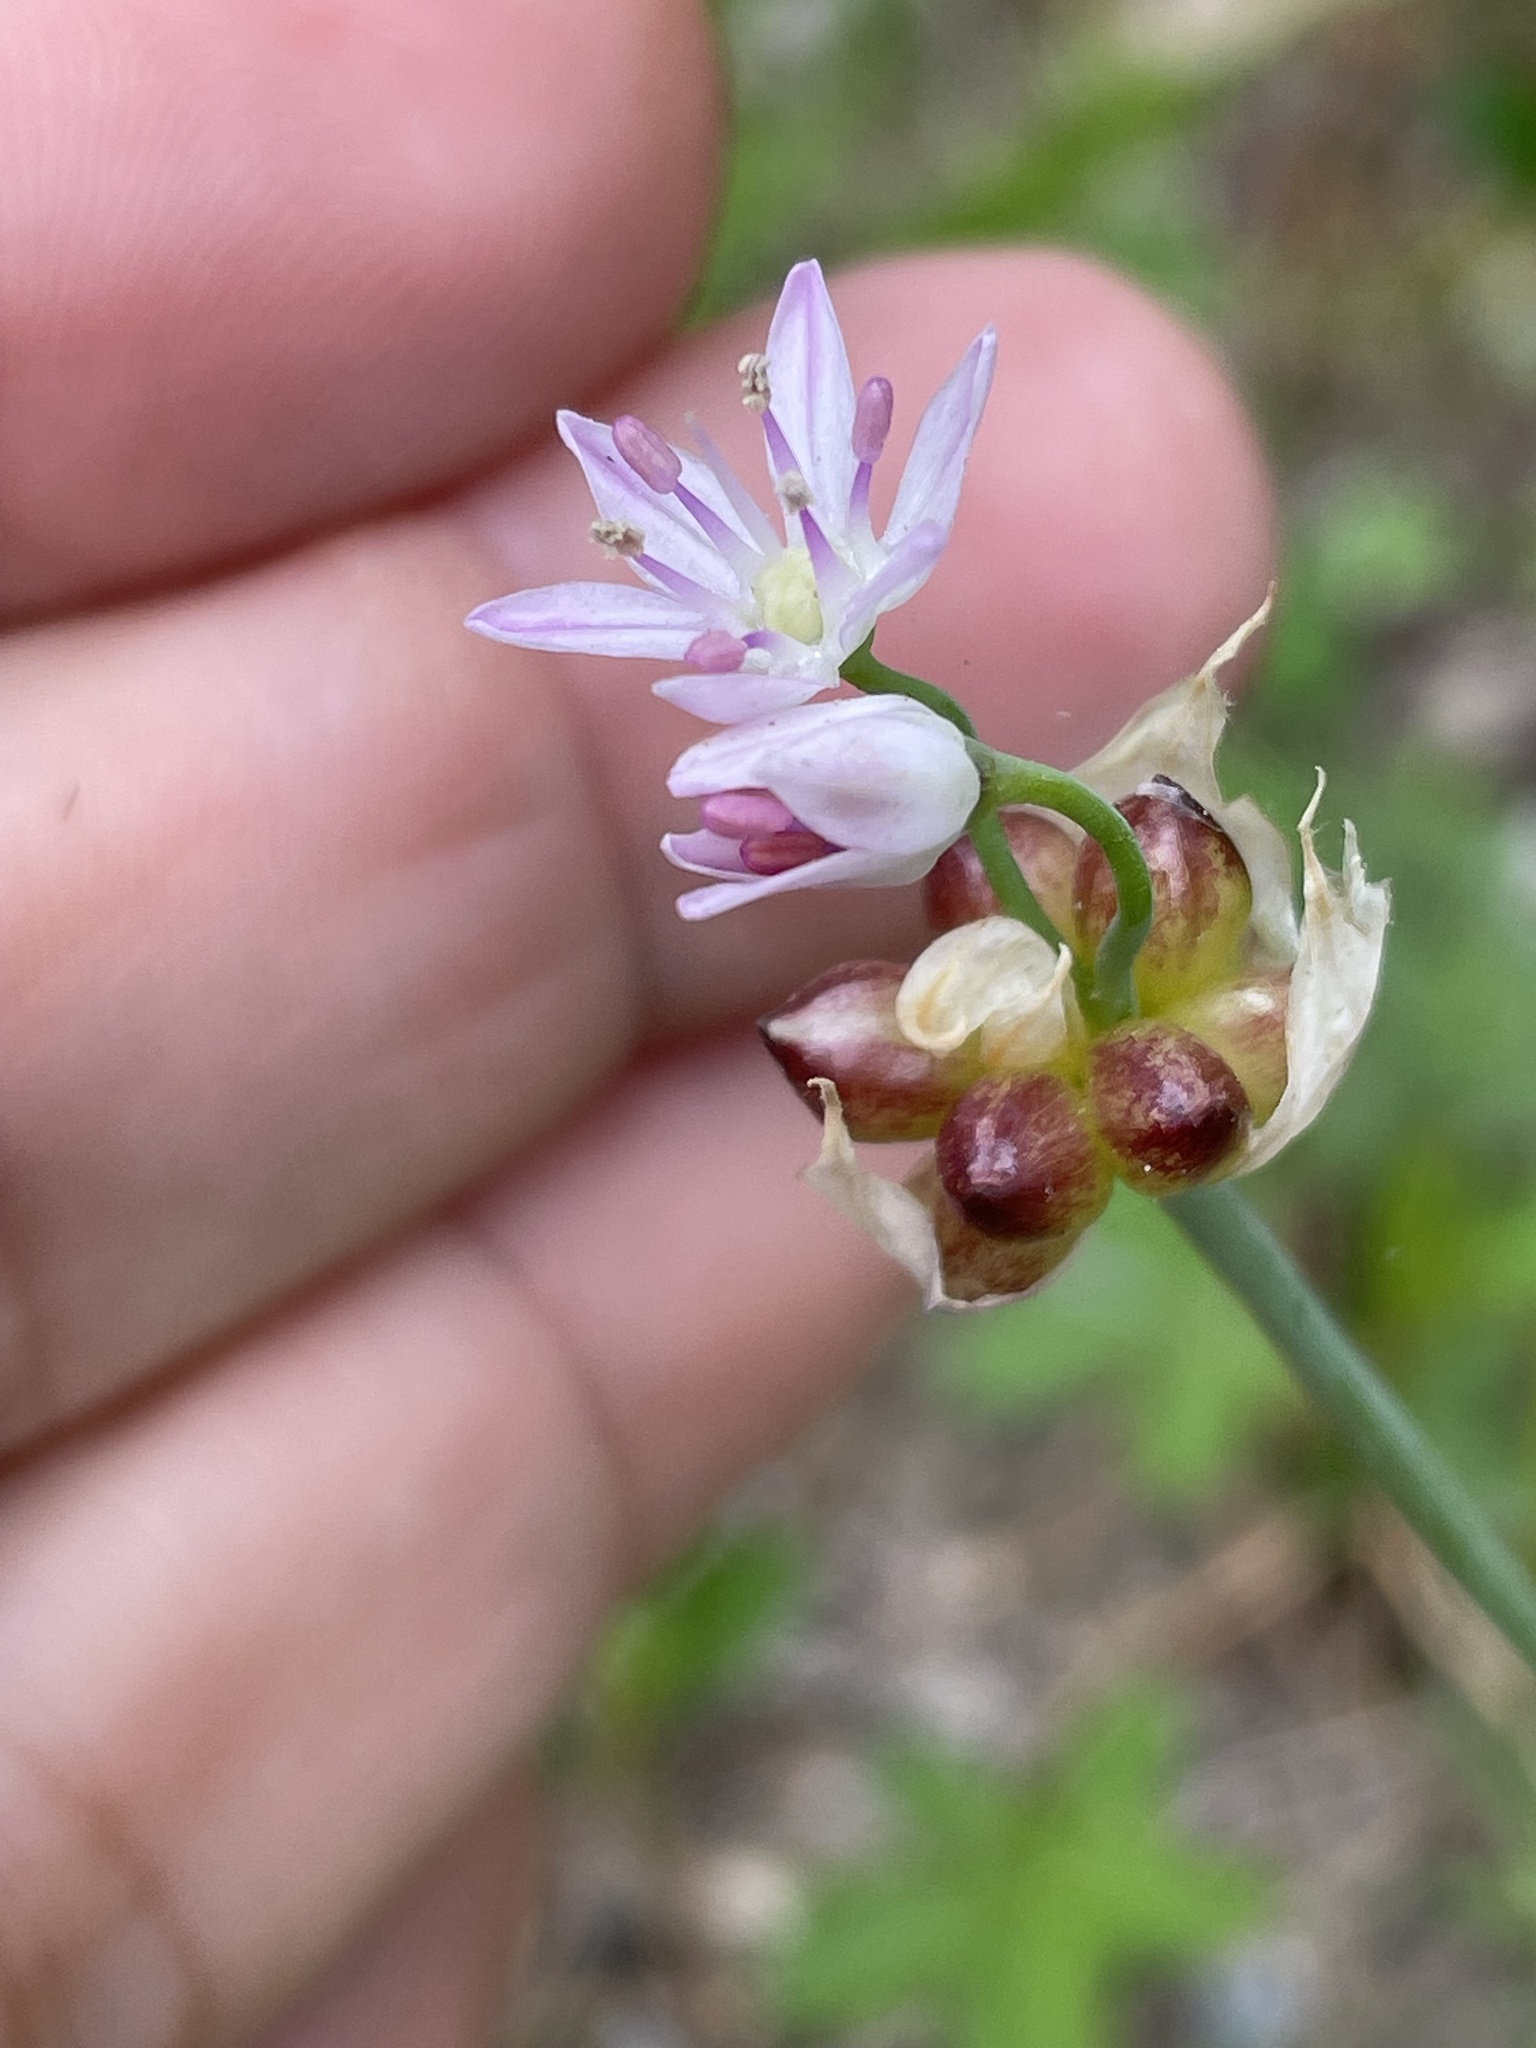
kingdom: Plantae
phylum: Tracheophyta
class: Liliopsida
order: Asparagales
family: Amaryllidaceae
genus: Allium
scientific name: Allium canadense
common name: Meadow garlic
